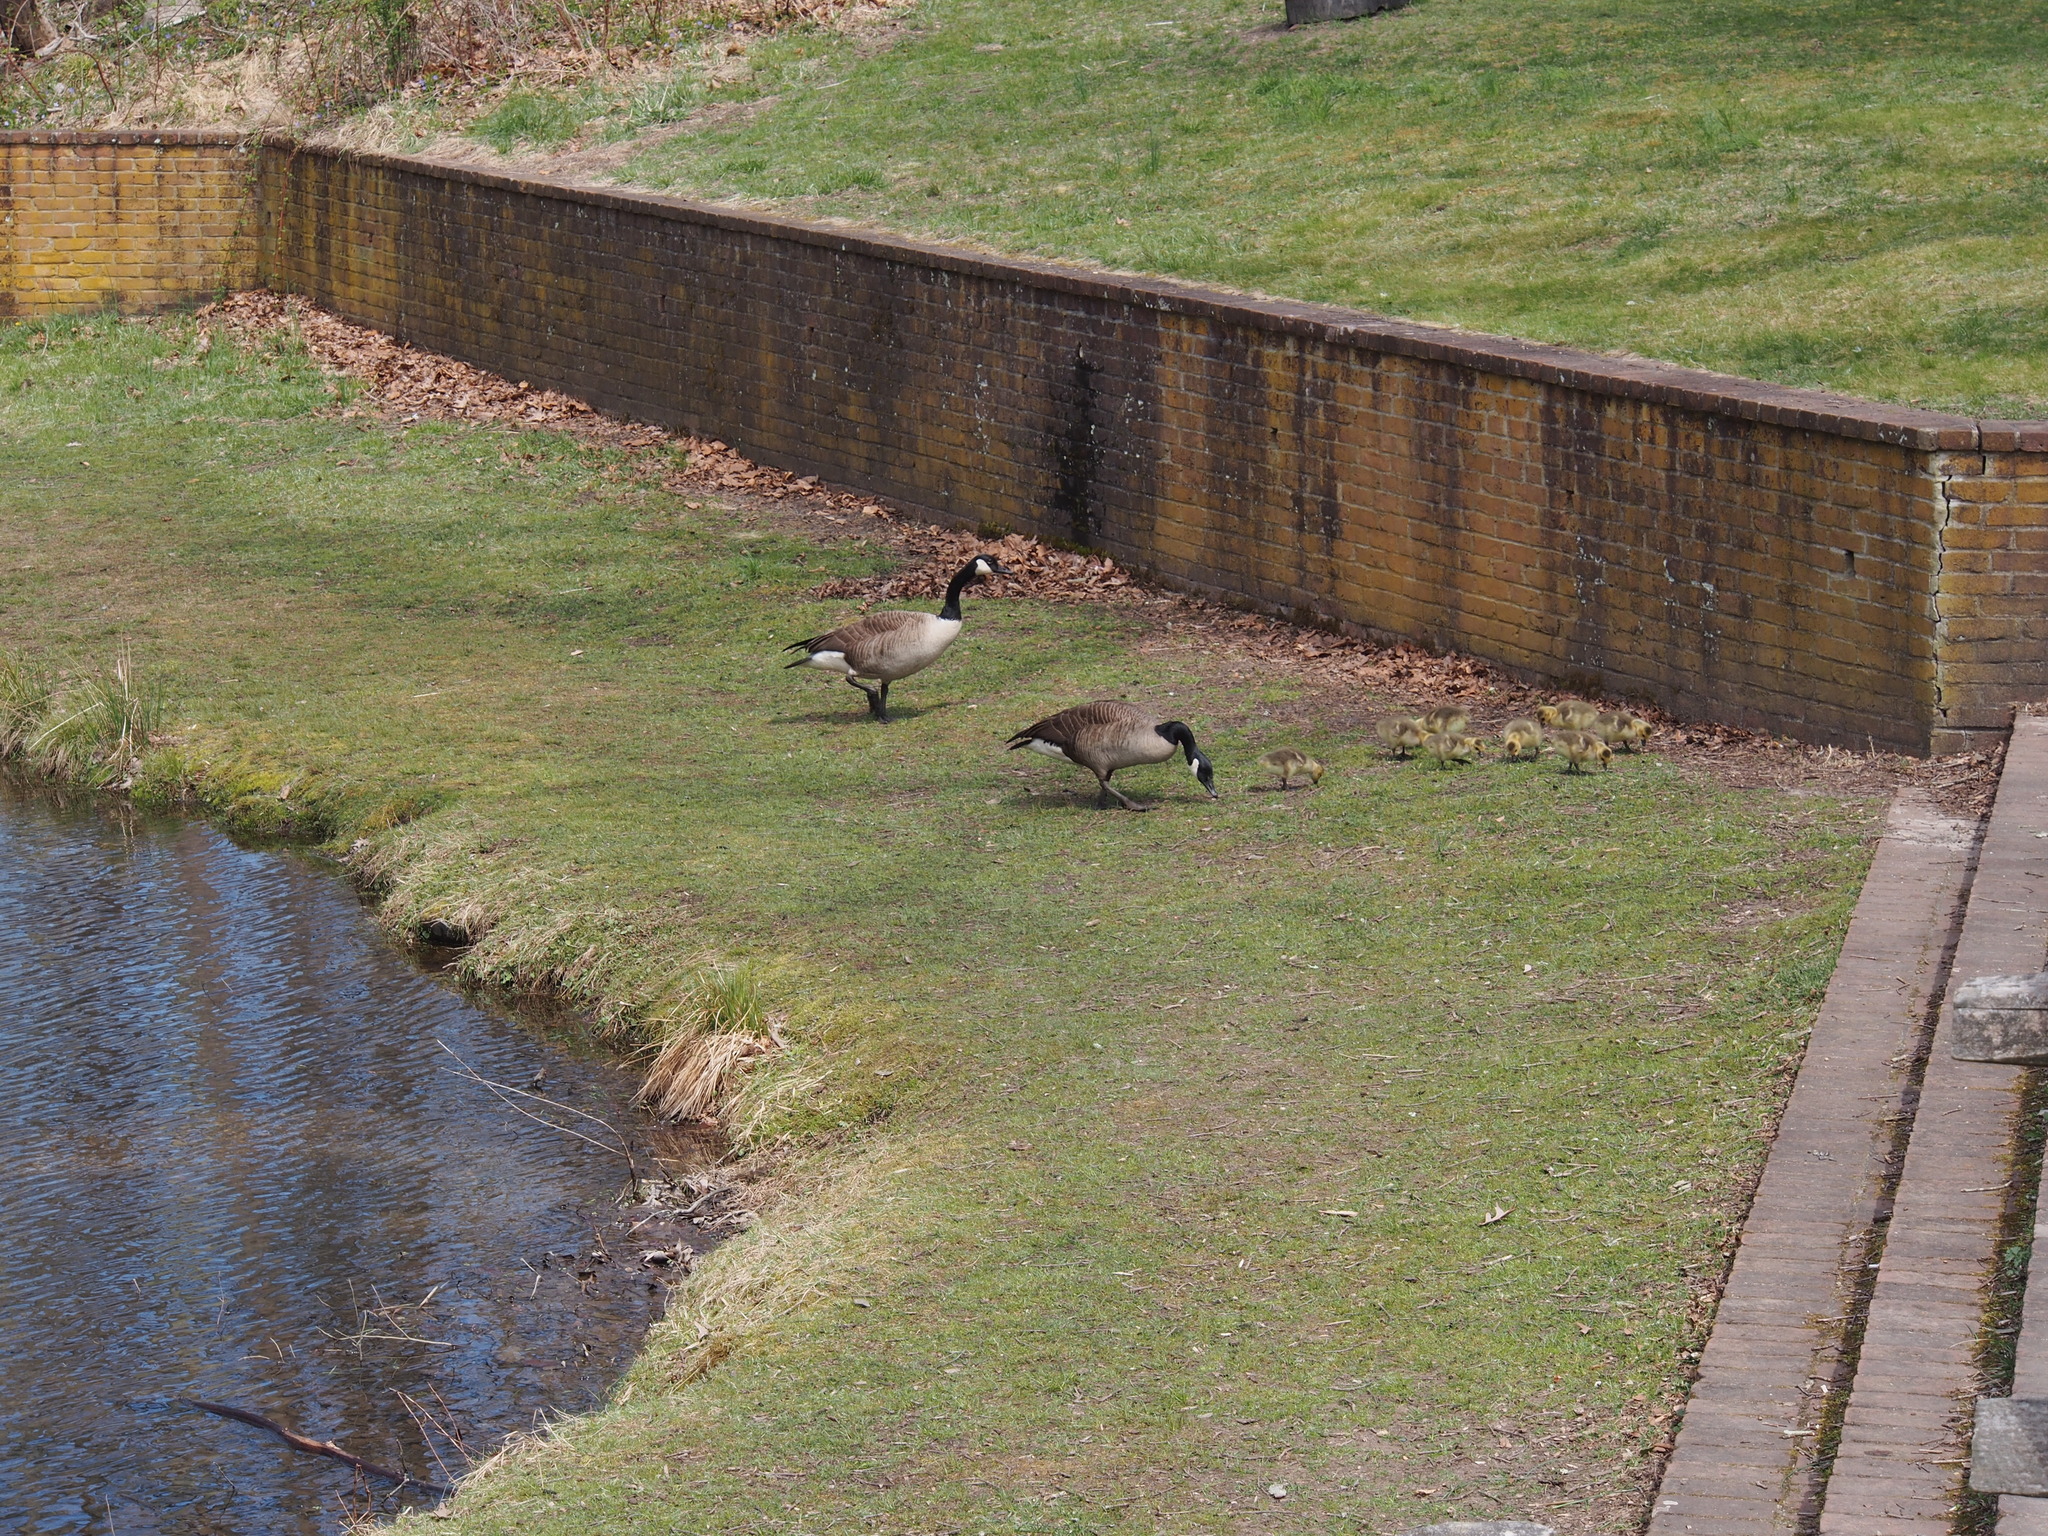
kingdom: Animalia
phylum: Chordata
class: Aves
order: Anseriformes
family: Anatidae
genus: Branta
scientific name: Branta canadensis
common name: Canada goose
